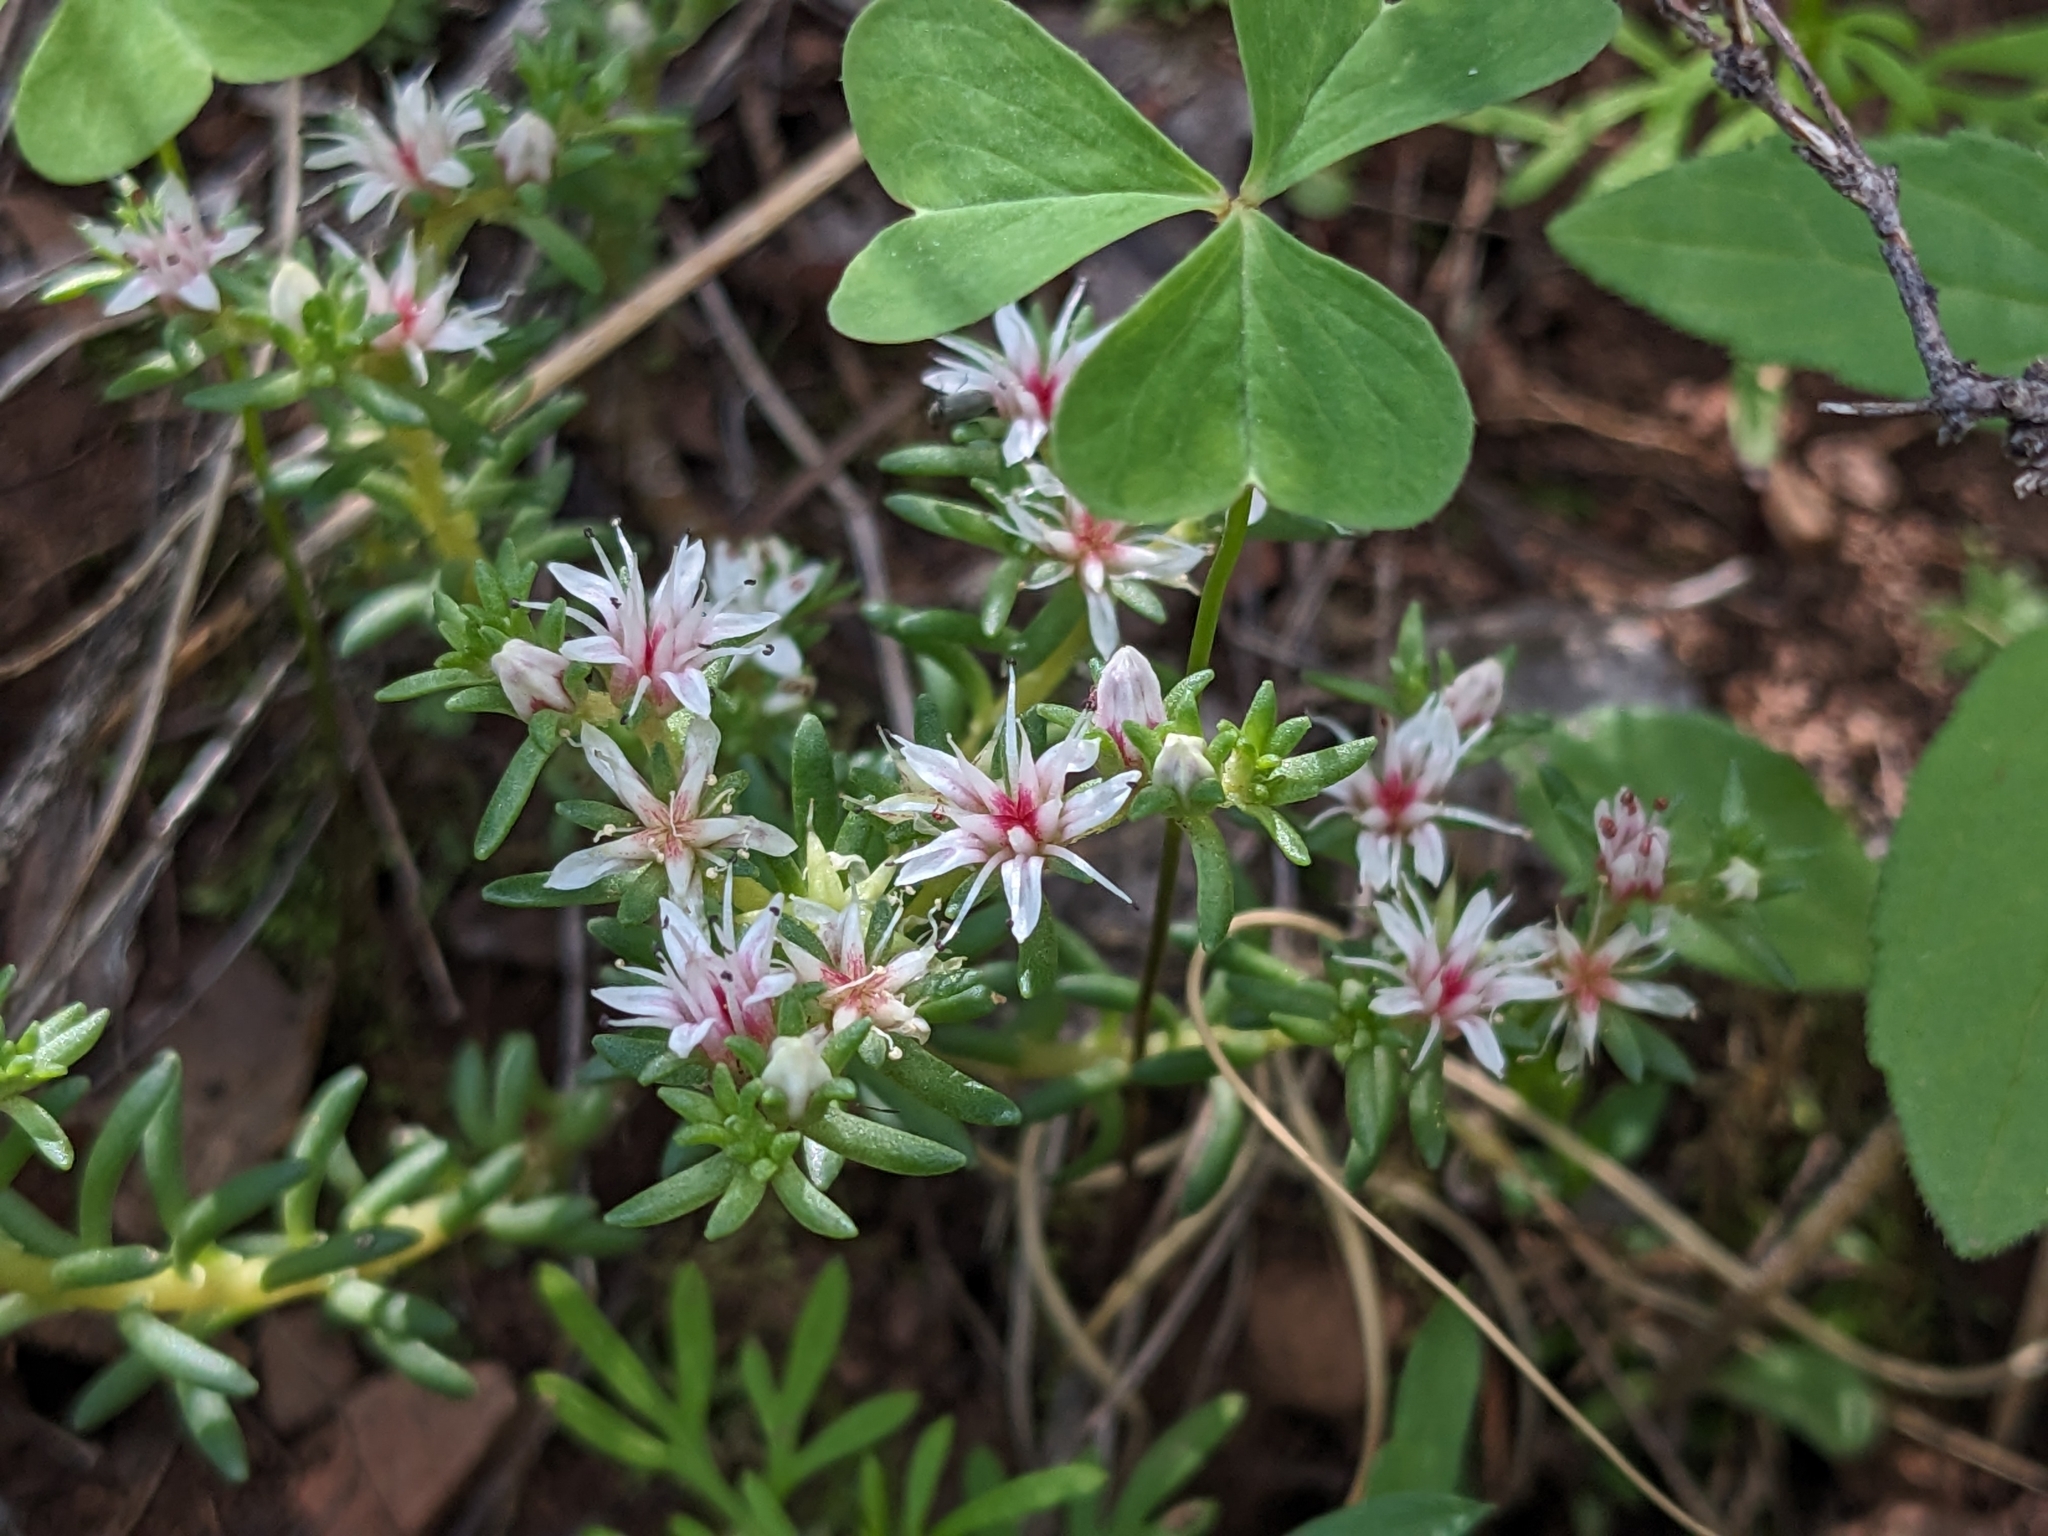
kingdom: Plantae
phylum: Tracheophyta
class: Magnoliopsida
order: Saxifragales
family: Crassulaceae
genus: Sedum
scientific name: Sedum stelliforme
